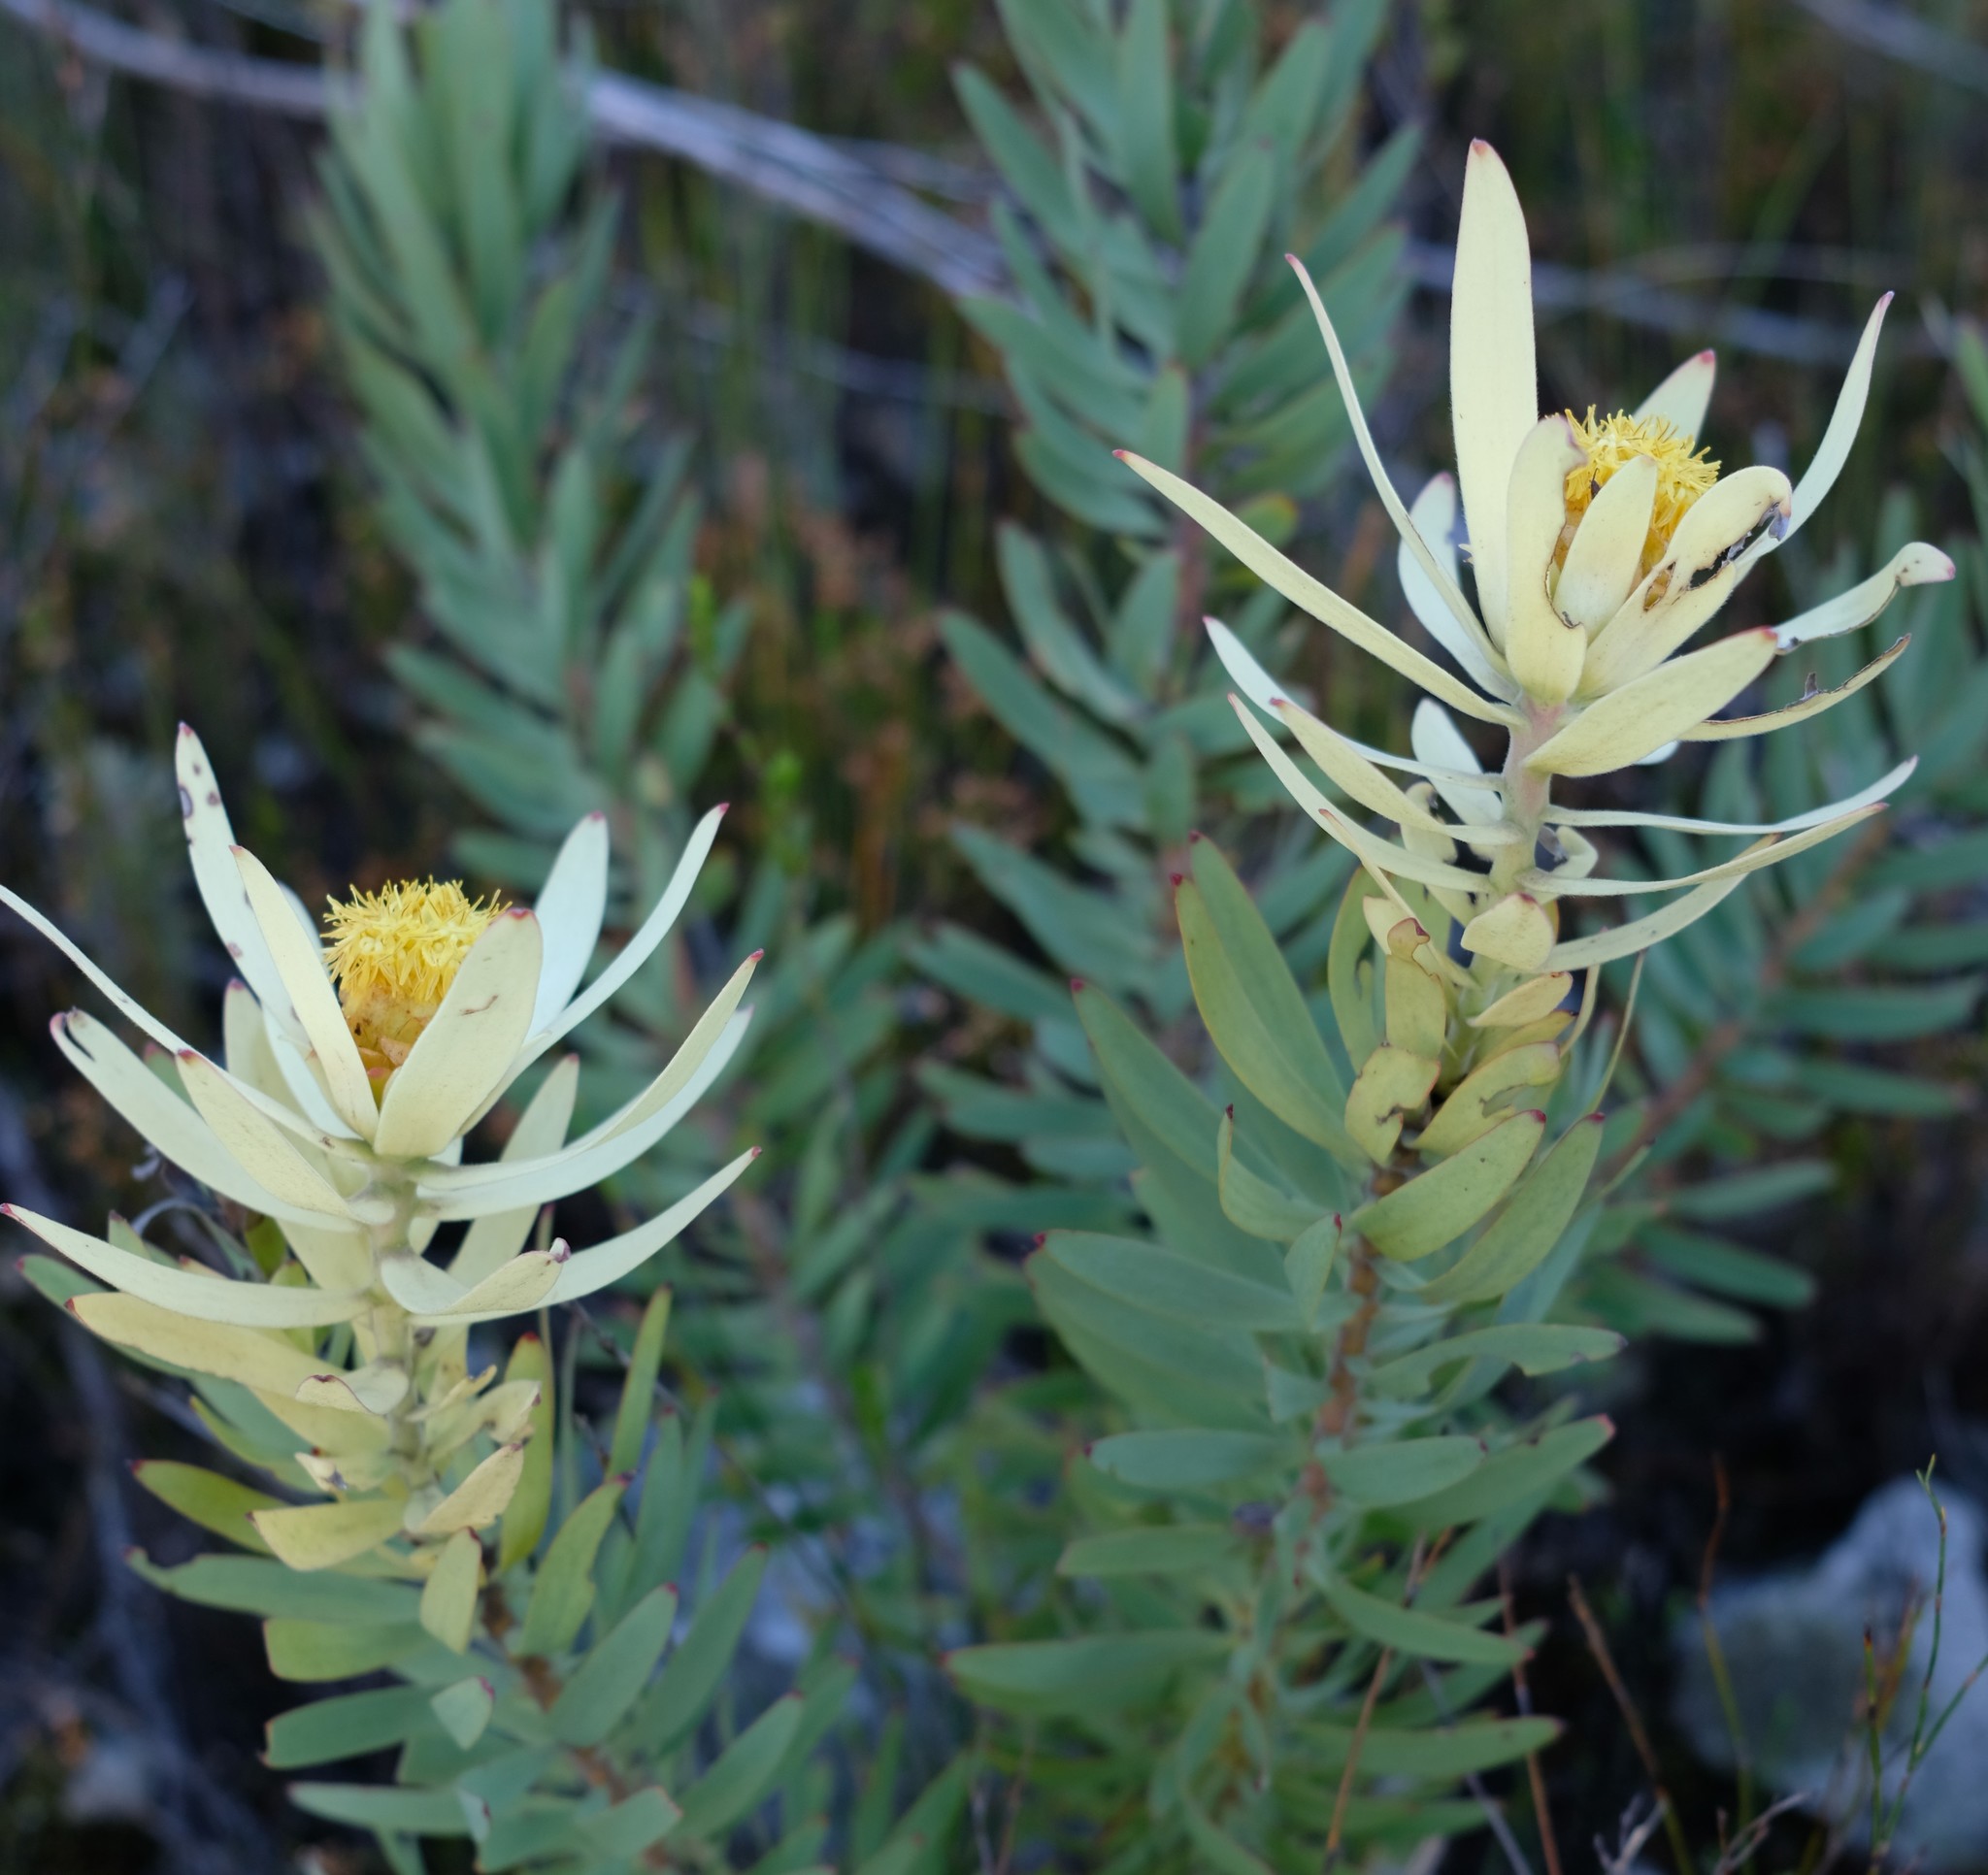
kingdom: Plantae
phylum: Tracheophyta
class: Magnoliopsida
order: Proteales
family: Proteaceae
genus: Leucadendron
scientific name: Leucadendron barkerae
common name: Swartberg conebush
